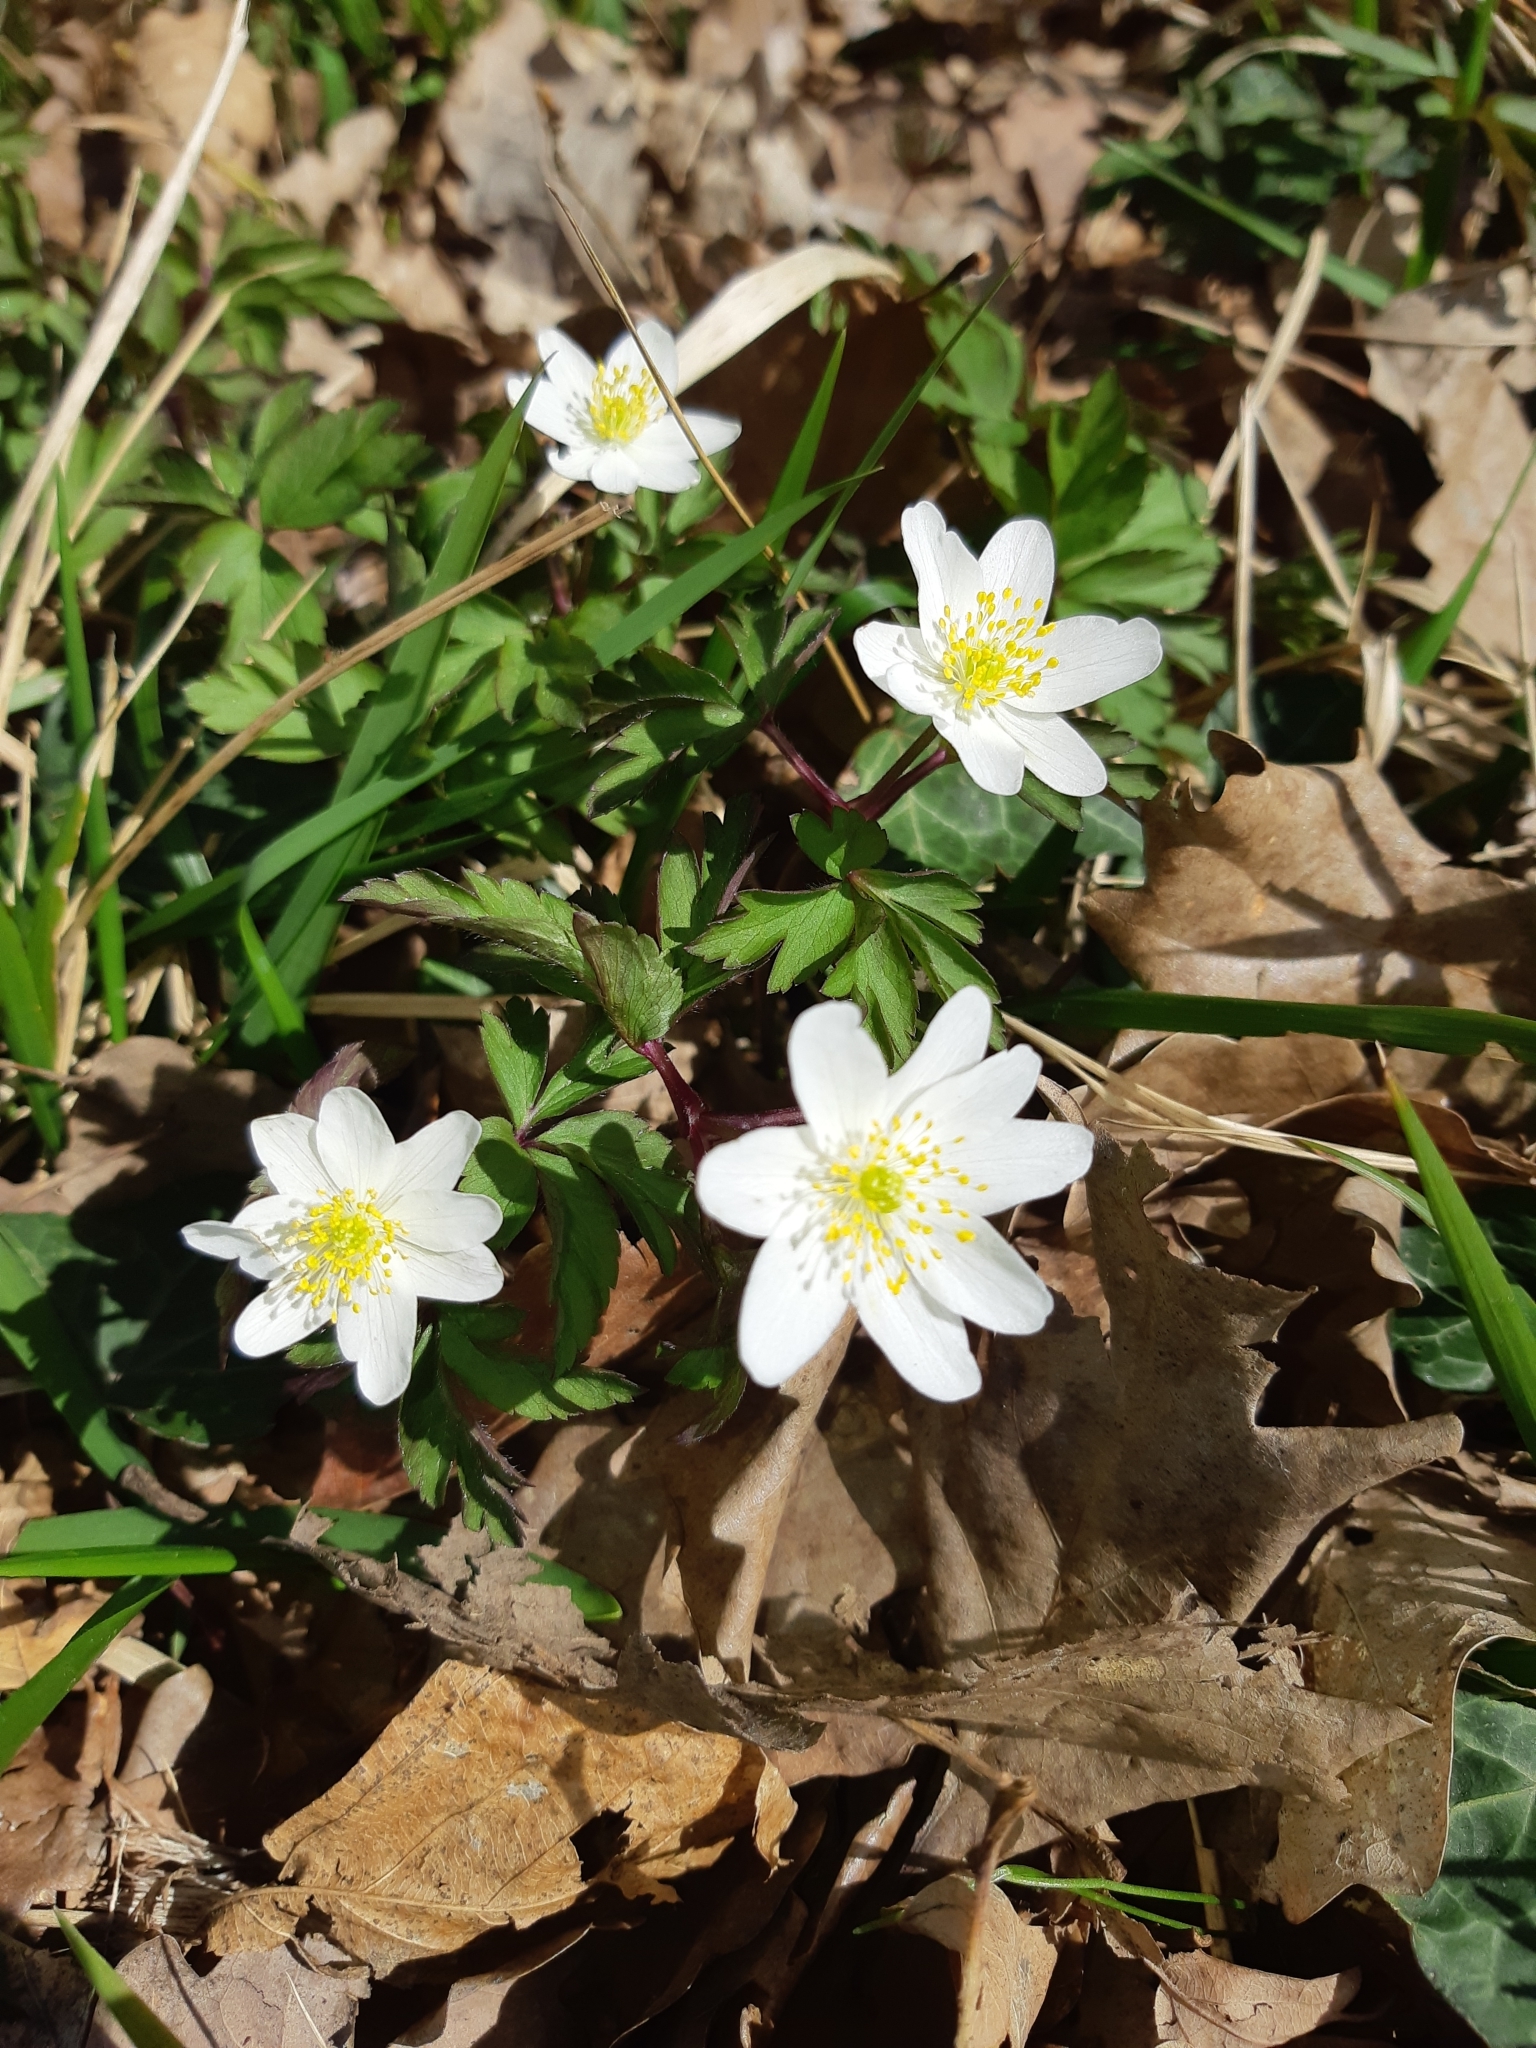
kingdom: Plantae
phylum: Tracheophyta
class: Magnoliopsida
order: Ranunculales
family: Ranunculaceae
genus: Anemone
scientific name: Anemone nemorosa
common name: Wood anemone
